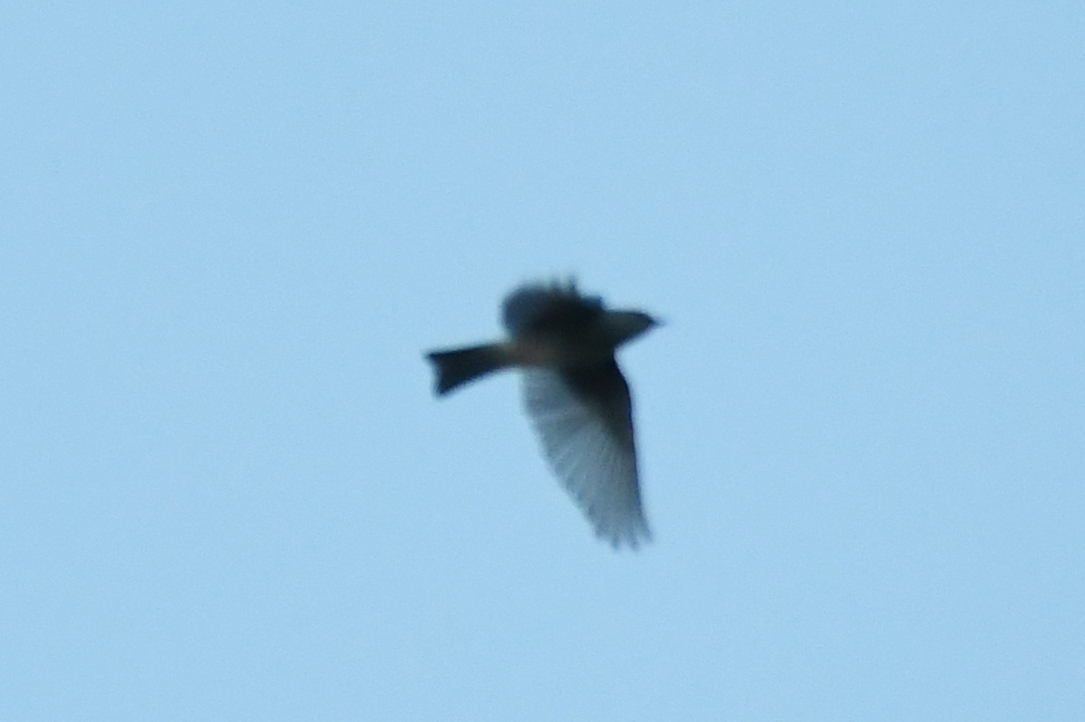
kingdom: Animalia
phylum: Chordata
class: Aves
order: Passeriformes
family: Turdidae
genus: Sialia
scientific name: Sialia currucoides
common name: Mountain bluebird
